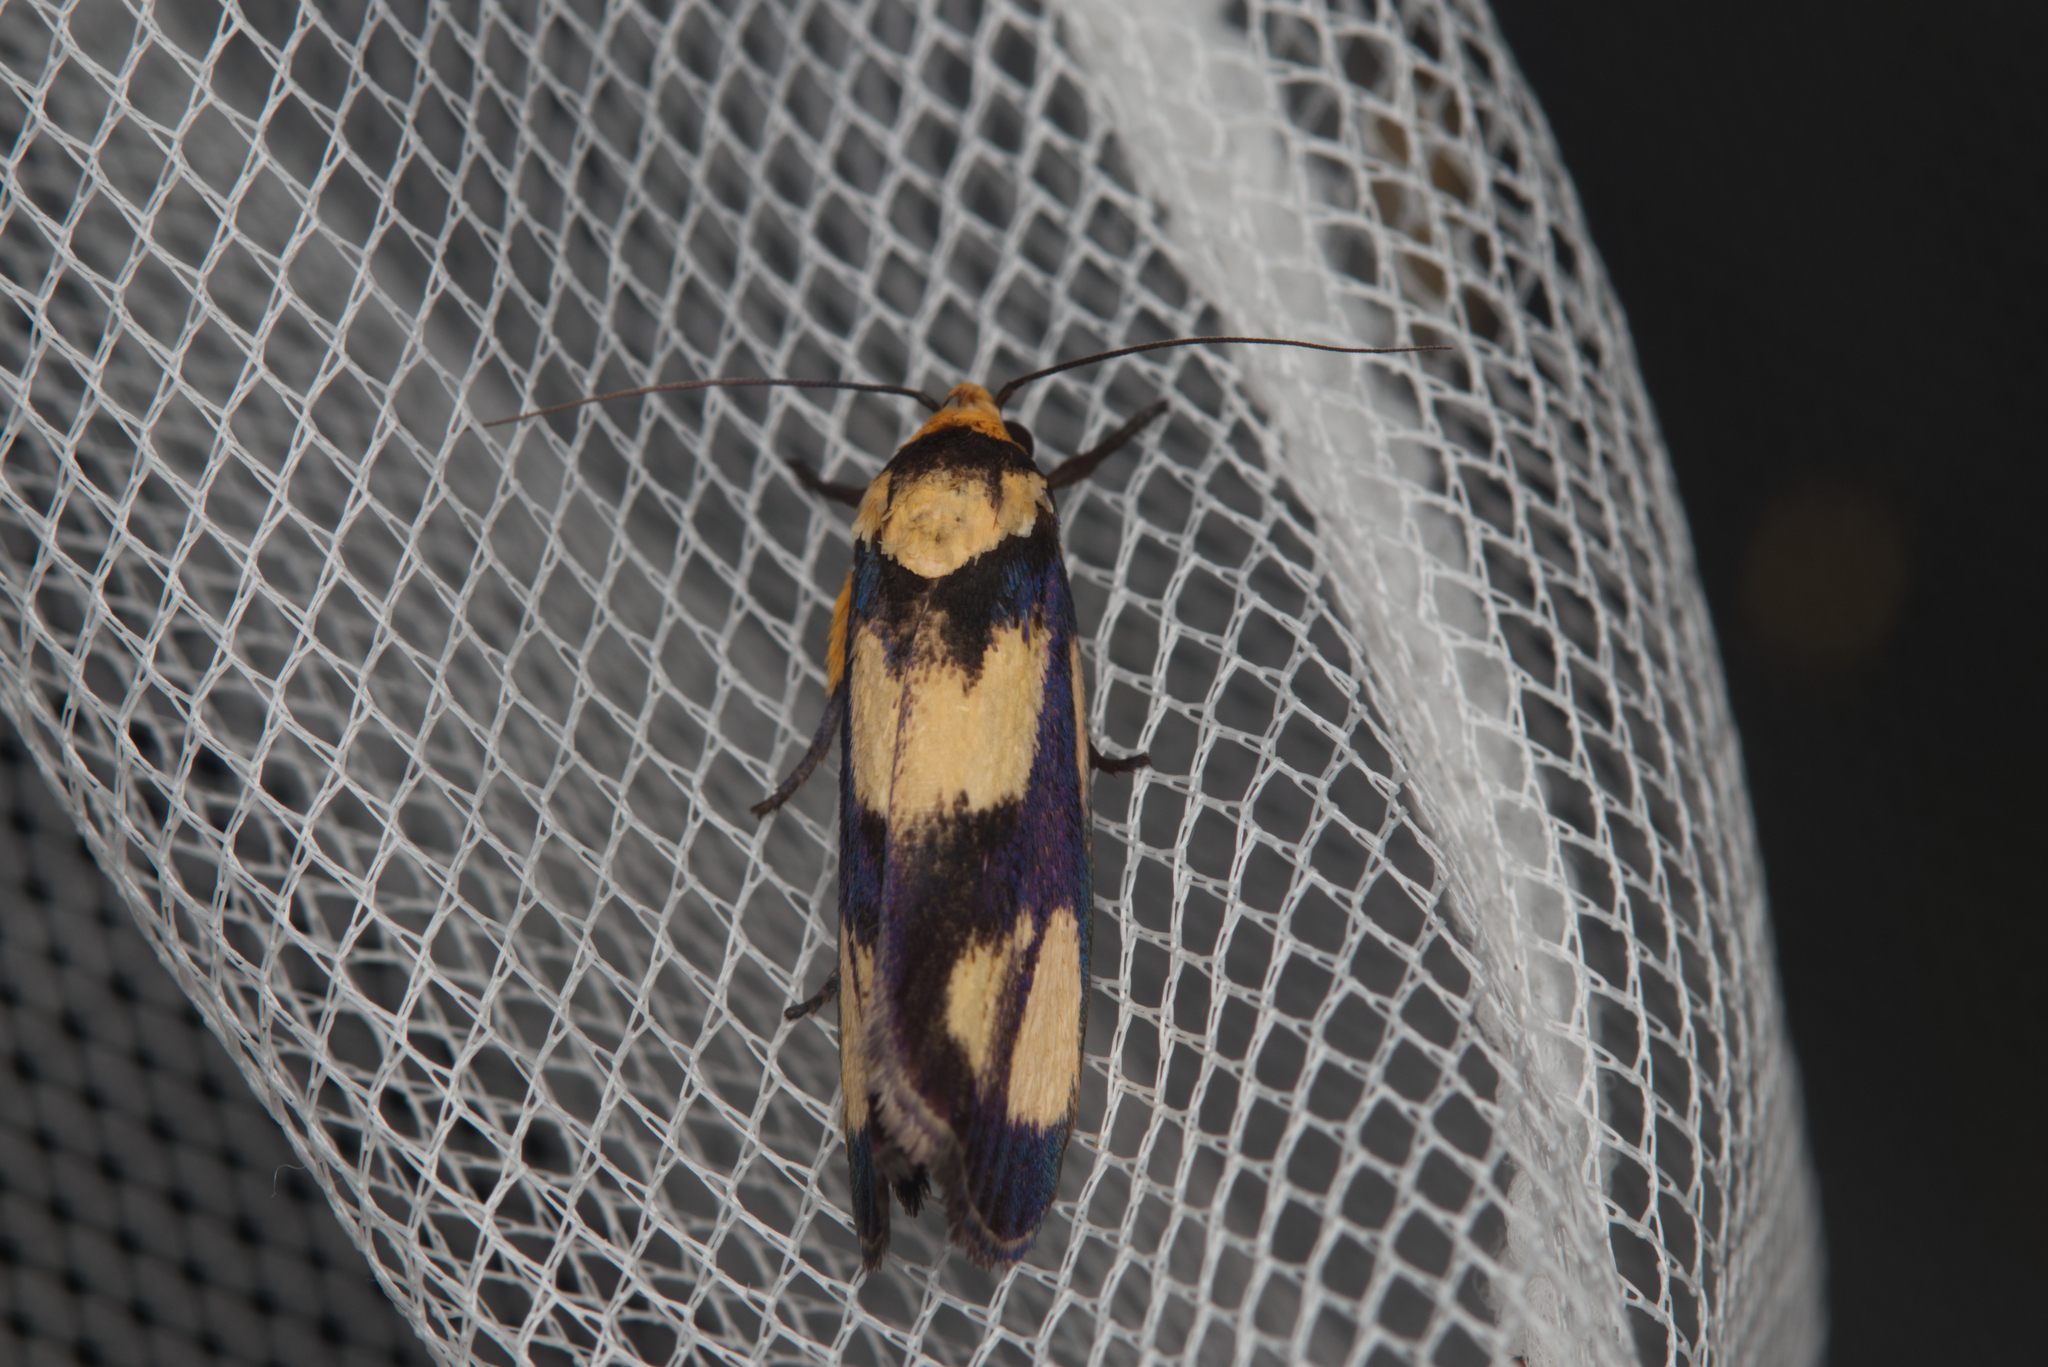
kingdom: Animalia
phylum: Arthropoda
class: Insecta
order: Lepidoptera
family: Xyloryctidae
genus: Xylorycta
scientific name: Xylorycta heliomacula
